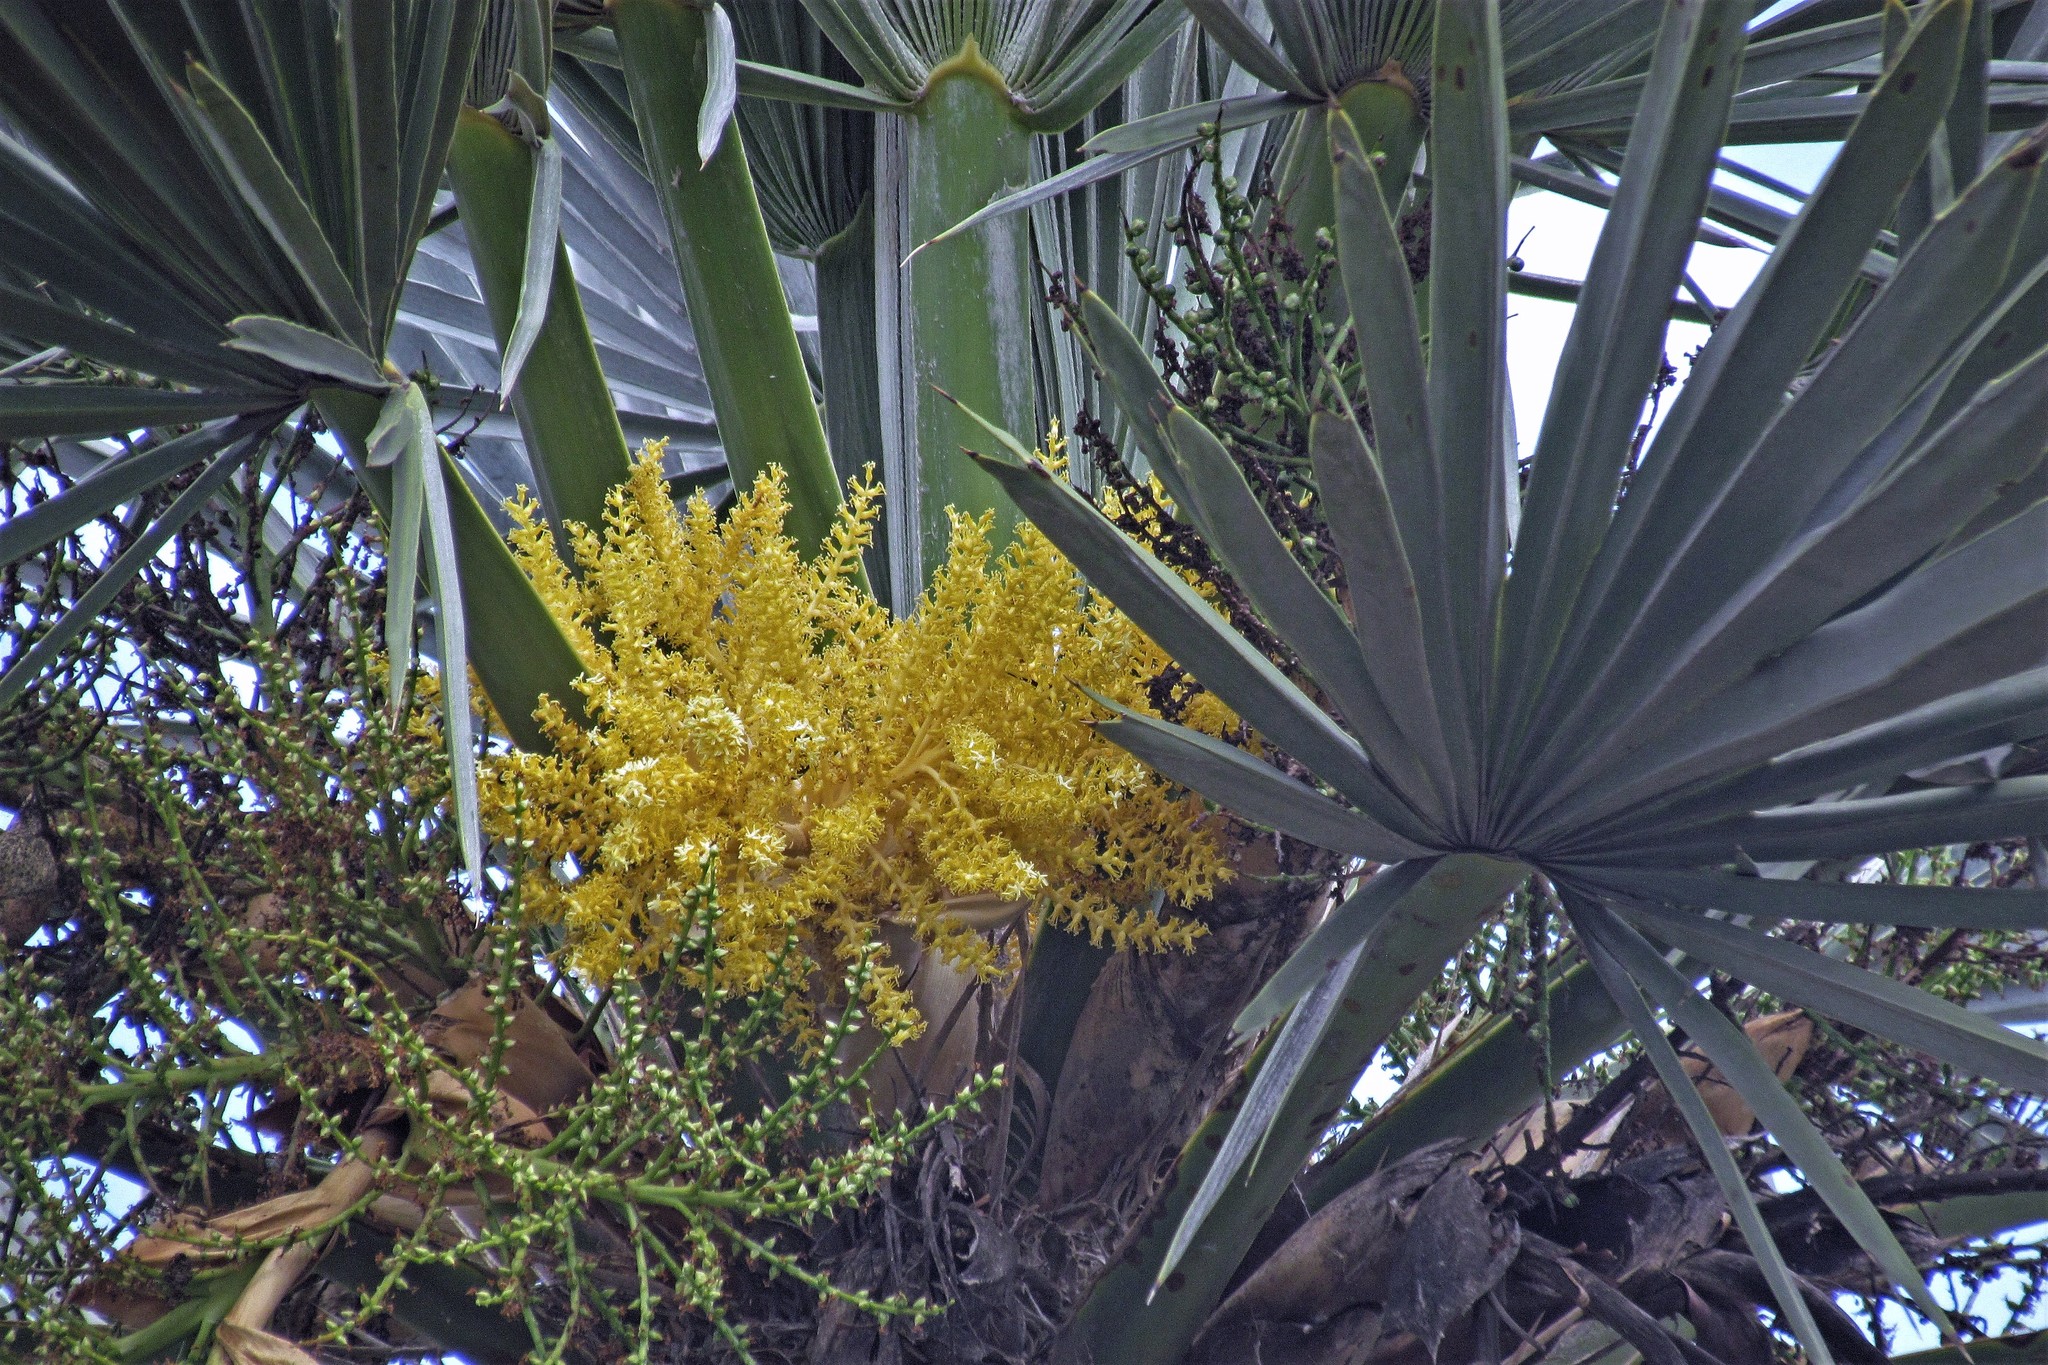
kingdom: Plantae
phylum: Tracheophyta
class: Liliopsida
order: Arecales
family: Arecaceae
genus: Trithrinax
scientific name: Trithrinax campestris
